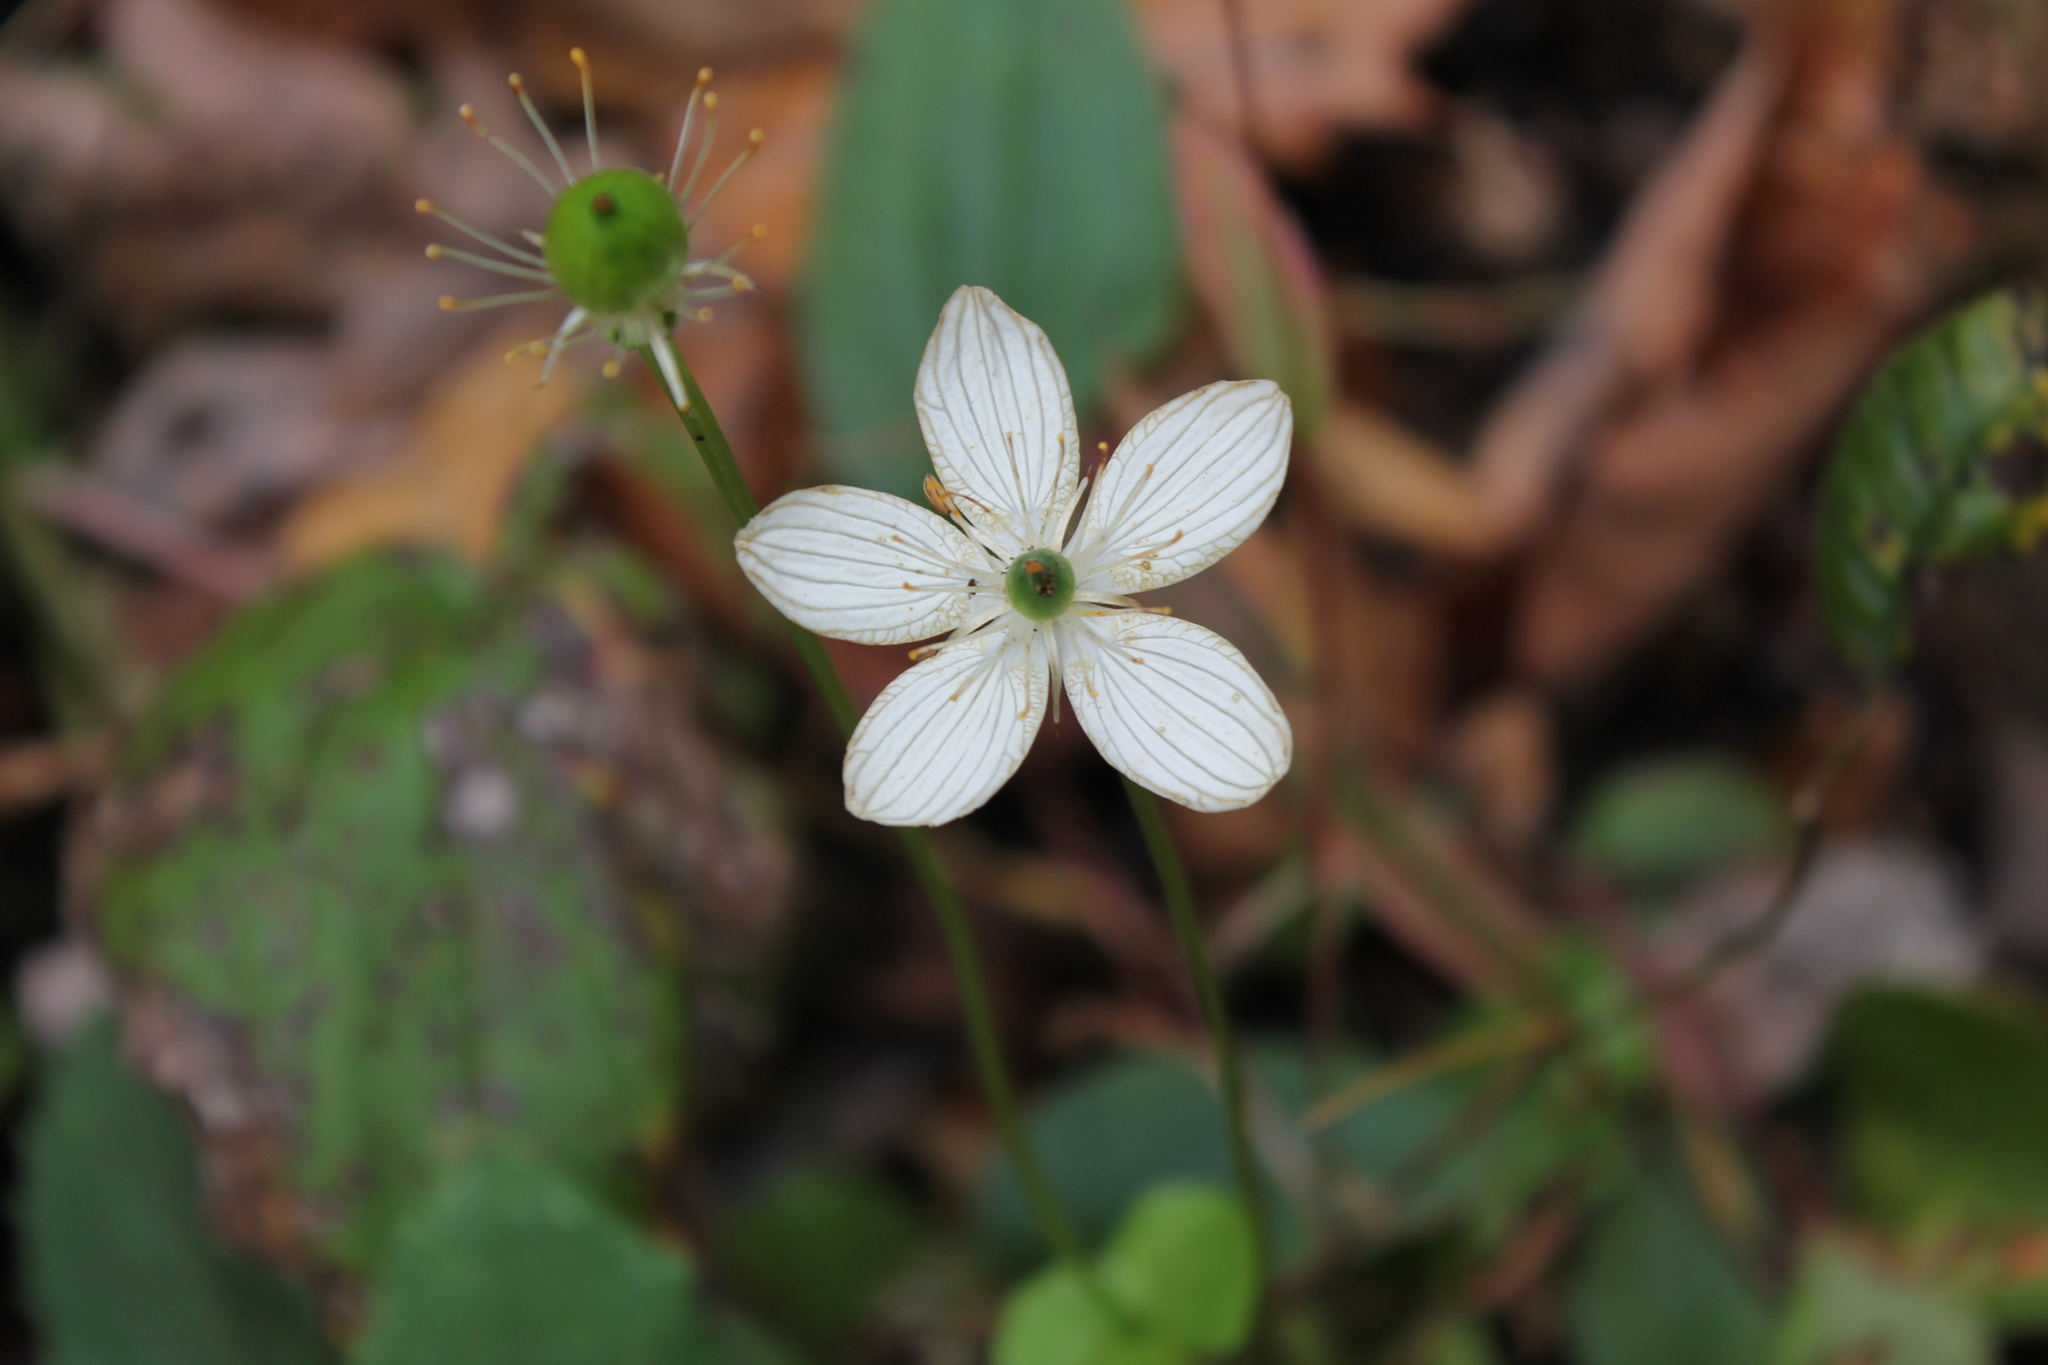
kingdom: Plantae
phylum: Tracheophyta
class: Magnoliopsida
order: Celastrales
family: Parnassiaceae
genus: Parnassia
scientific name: Parnassia grandifolia
